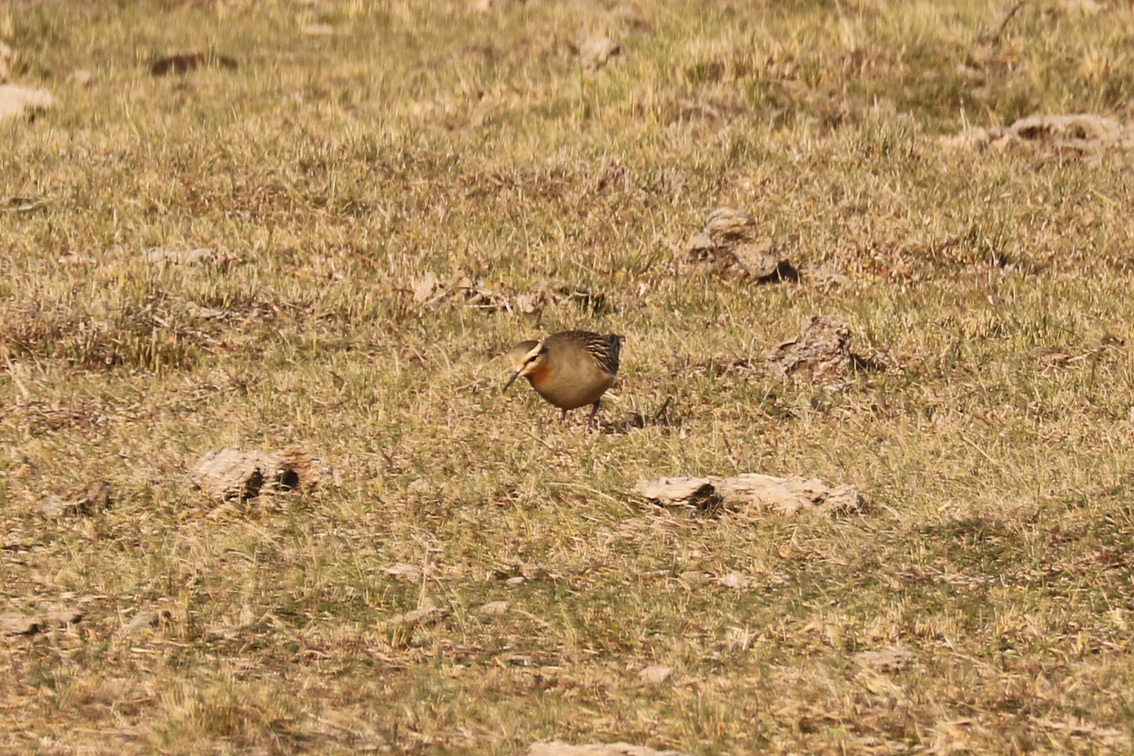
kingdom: Animalia
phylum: Chordata
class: Aves
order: Charadriiformes
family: Charadriidae
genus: Oreopholus
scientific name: Oreopholus ruficollis
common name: Tawny-throated dotterel
